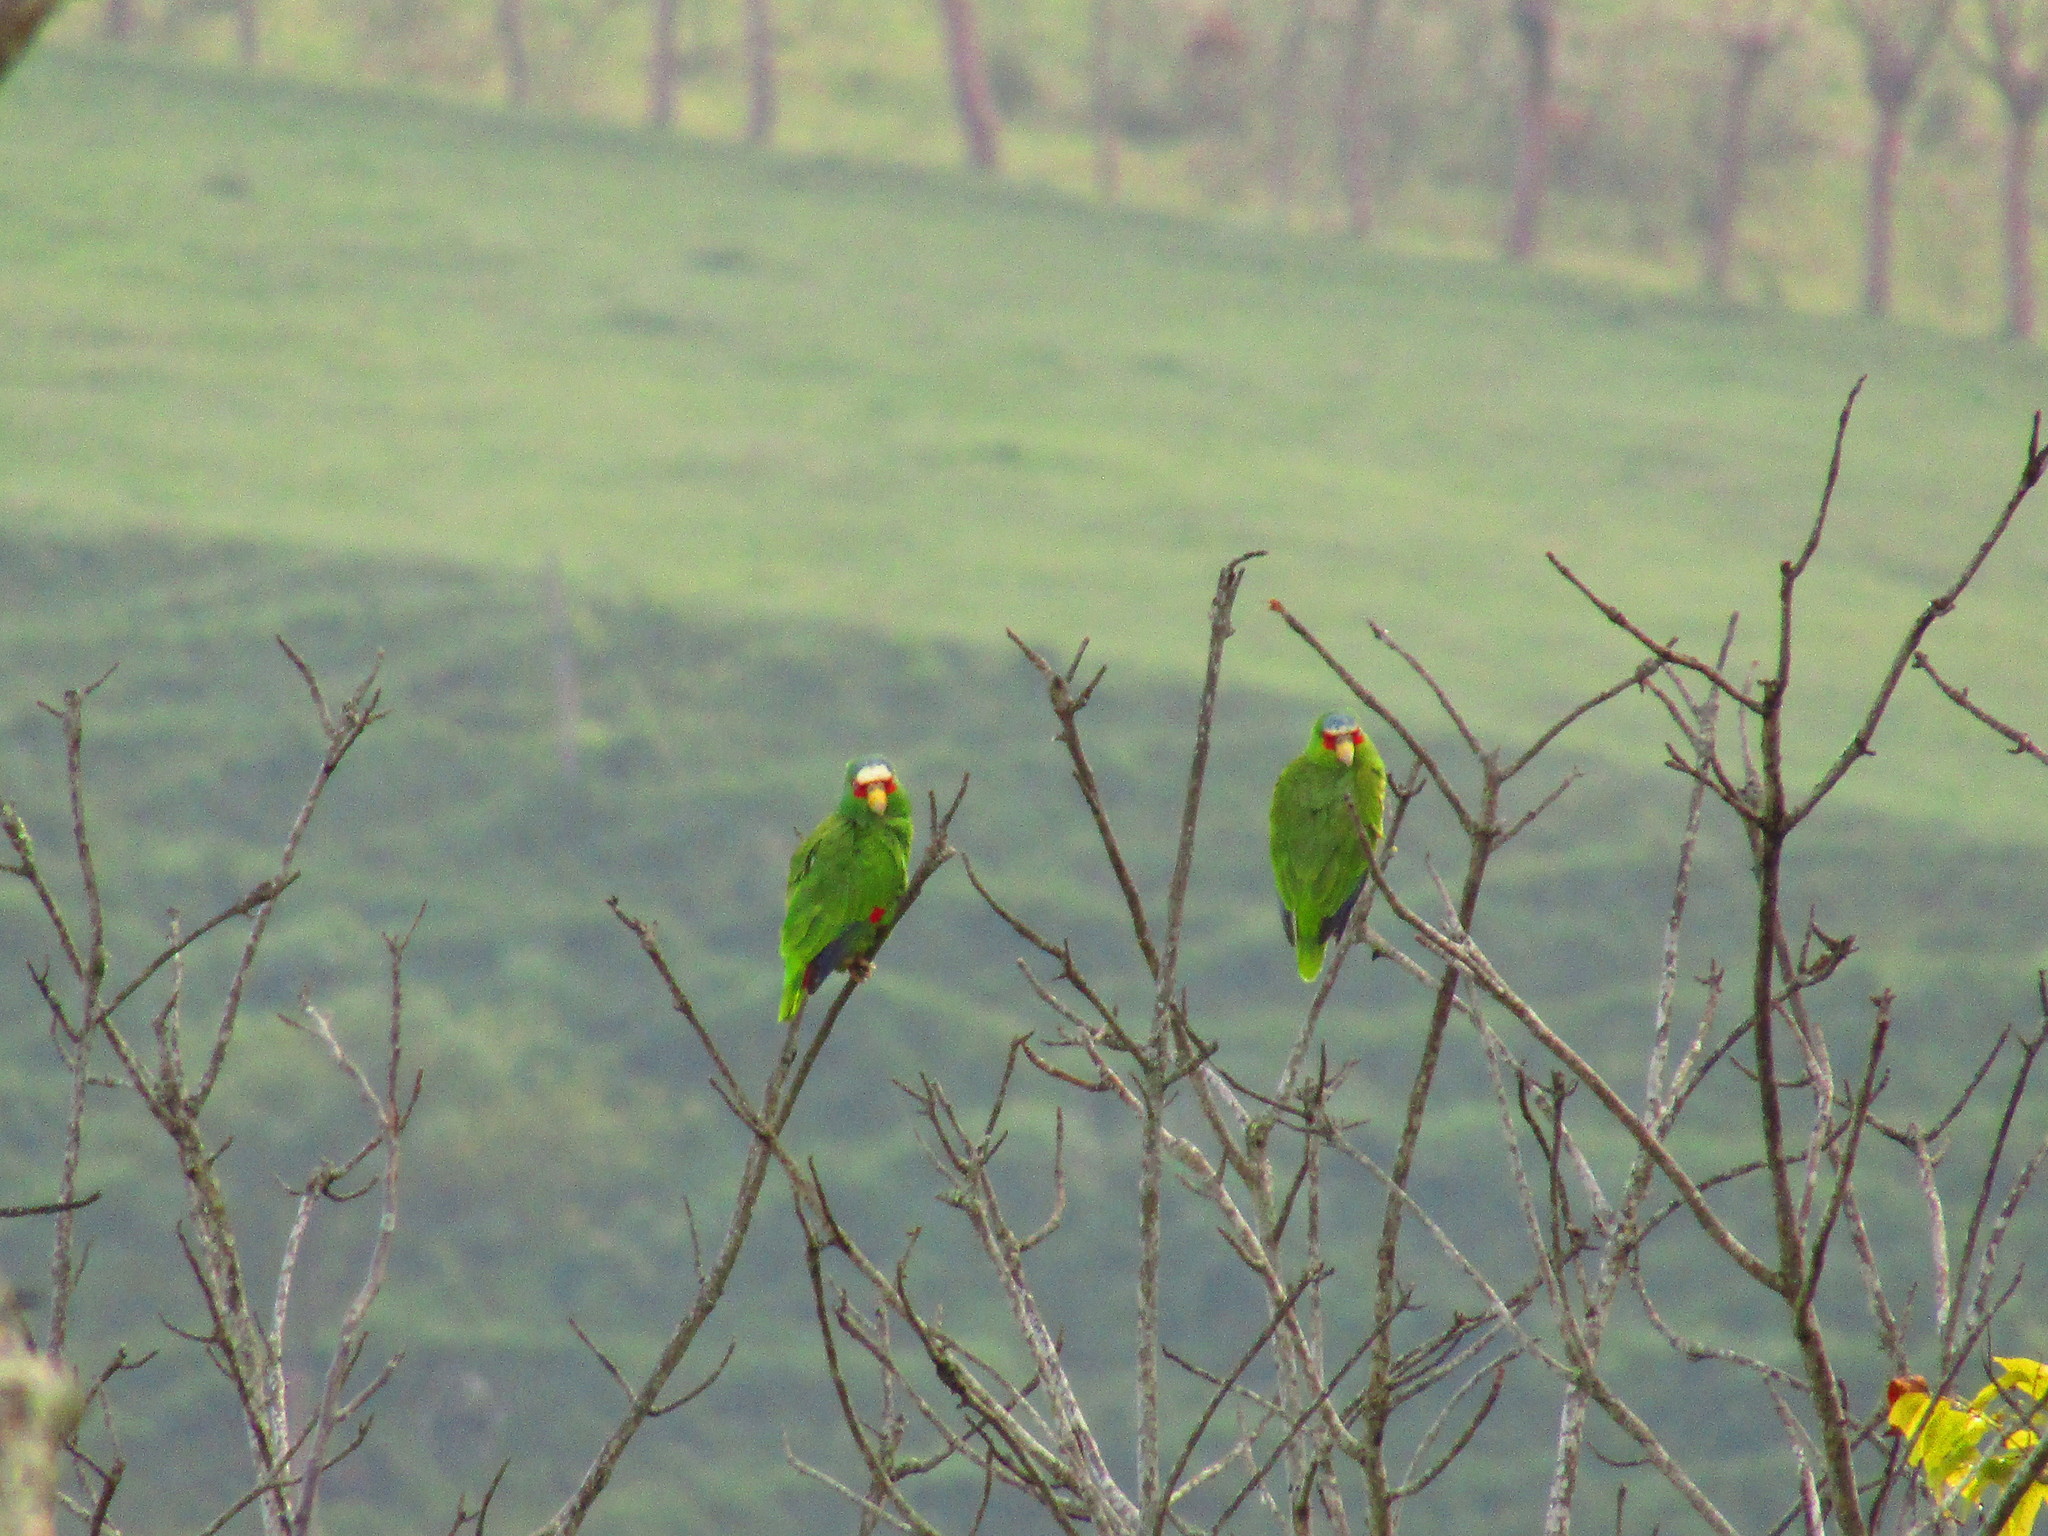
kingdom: Animalia
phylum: Chordata
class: Aves
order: Psittaciformes
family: Psittacidae
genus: Amazona
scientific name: Amazona albifrons
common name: White-fronted amazon
